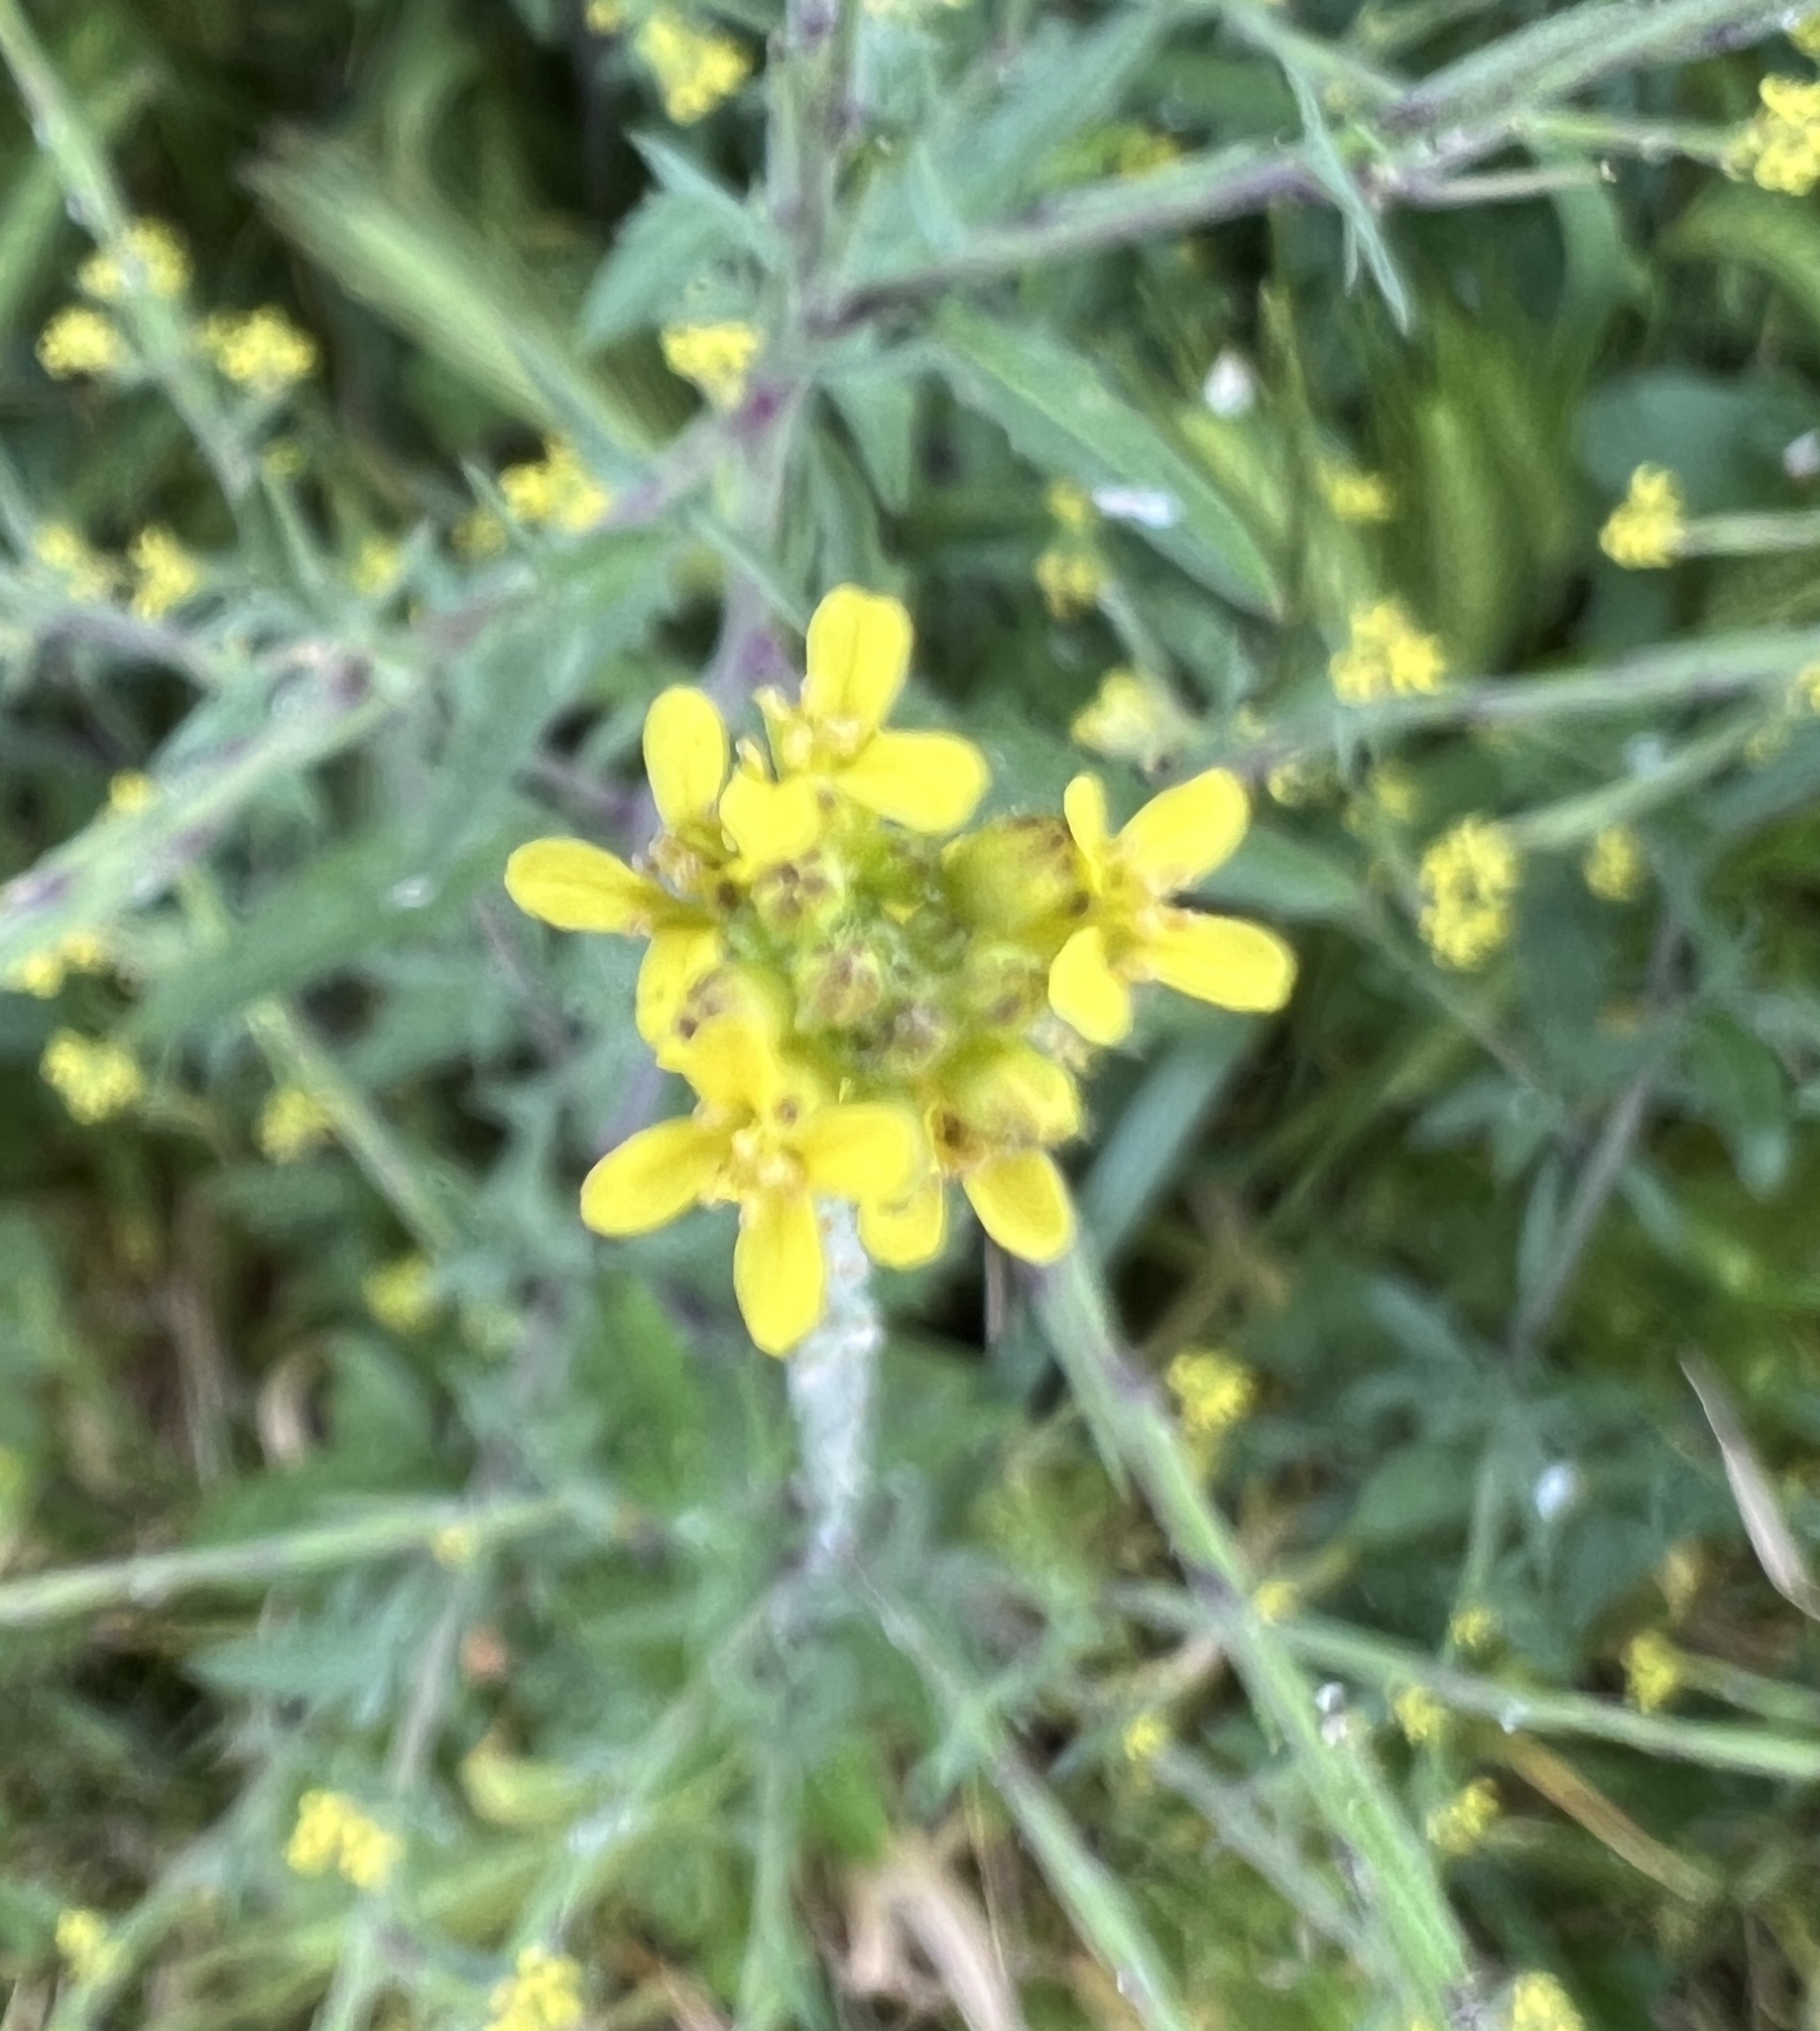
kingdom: Plantae
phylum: Tracheophyta
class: Magnoliopsida
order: Brassicales
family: Brassicaceae
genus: Sisymbrium
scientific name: Sisymbrium officinale
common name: Hedge mustard
